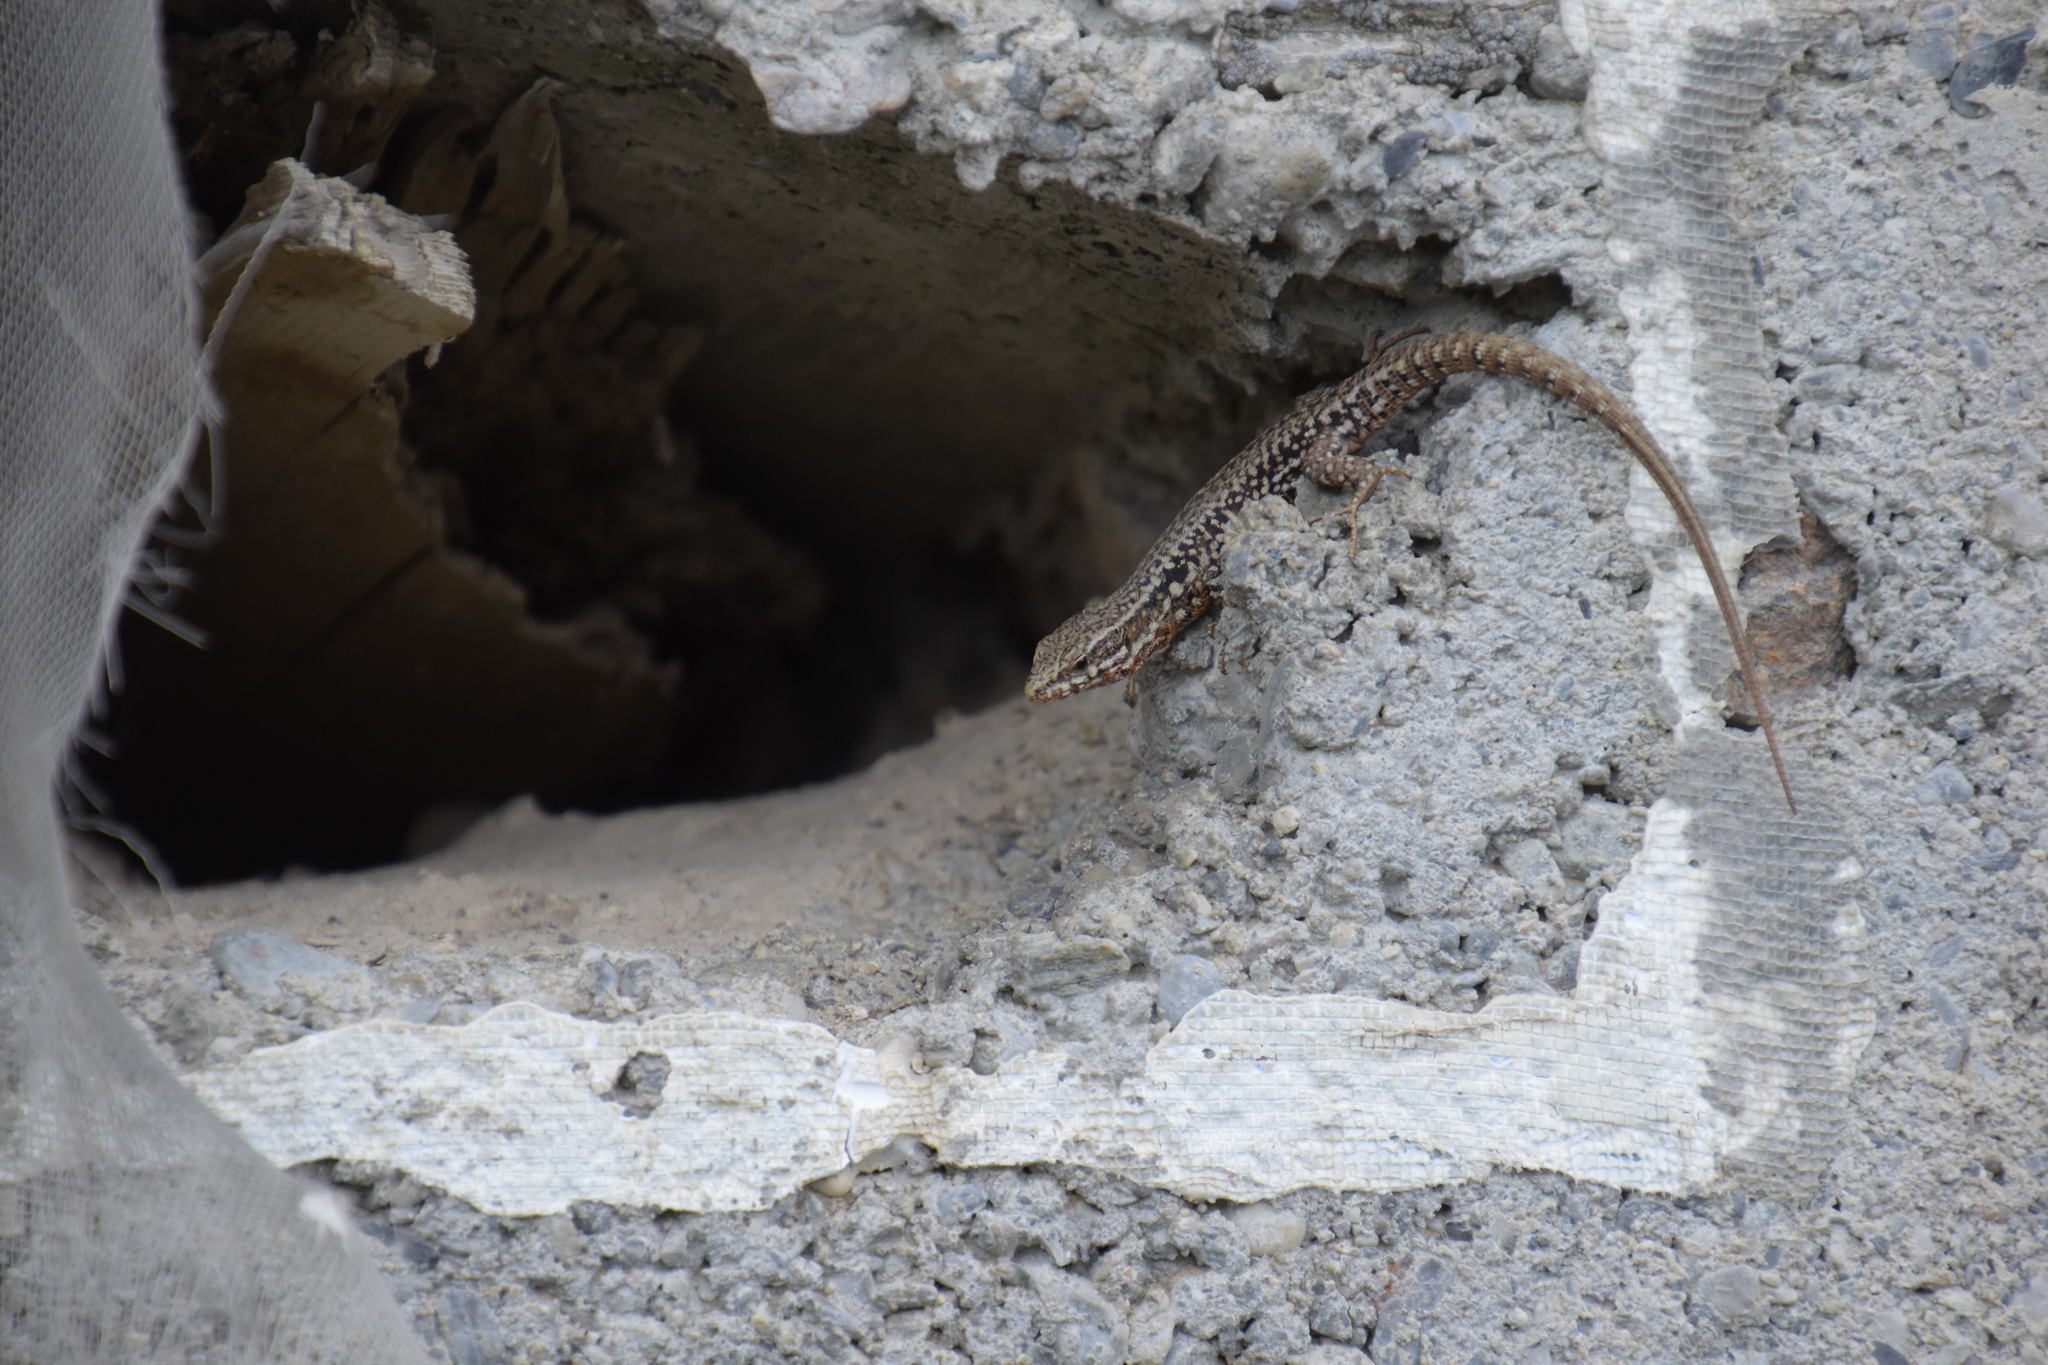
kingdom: Animalia
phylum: Chordata
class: Squamata
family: Lacertidae
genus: Podarcis
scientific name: Podarcis muralis
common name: Common wall lizard
